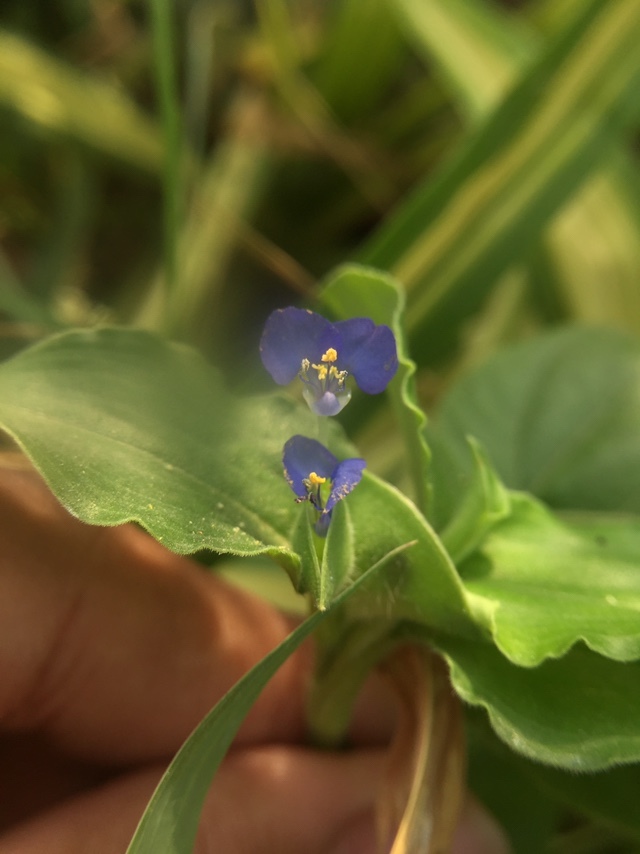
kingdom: Plantae
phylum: Tracheophyta
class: Liliopsida
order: Commelinales
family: Commelinaceae
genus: Commelina
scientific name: Commelina benghalensis
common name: Jio
